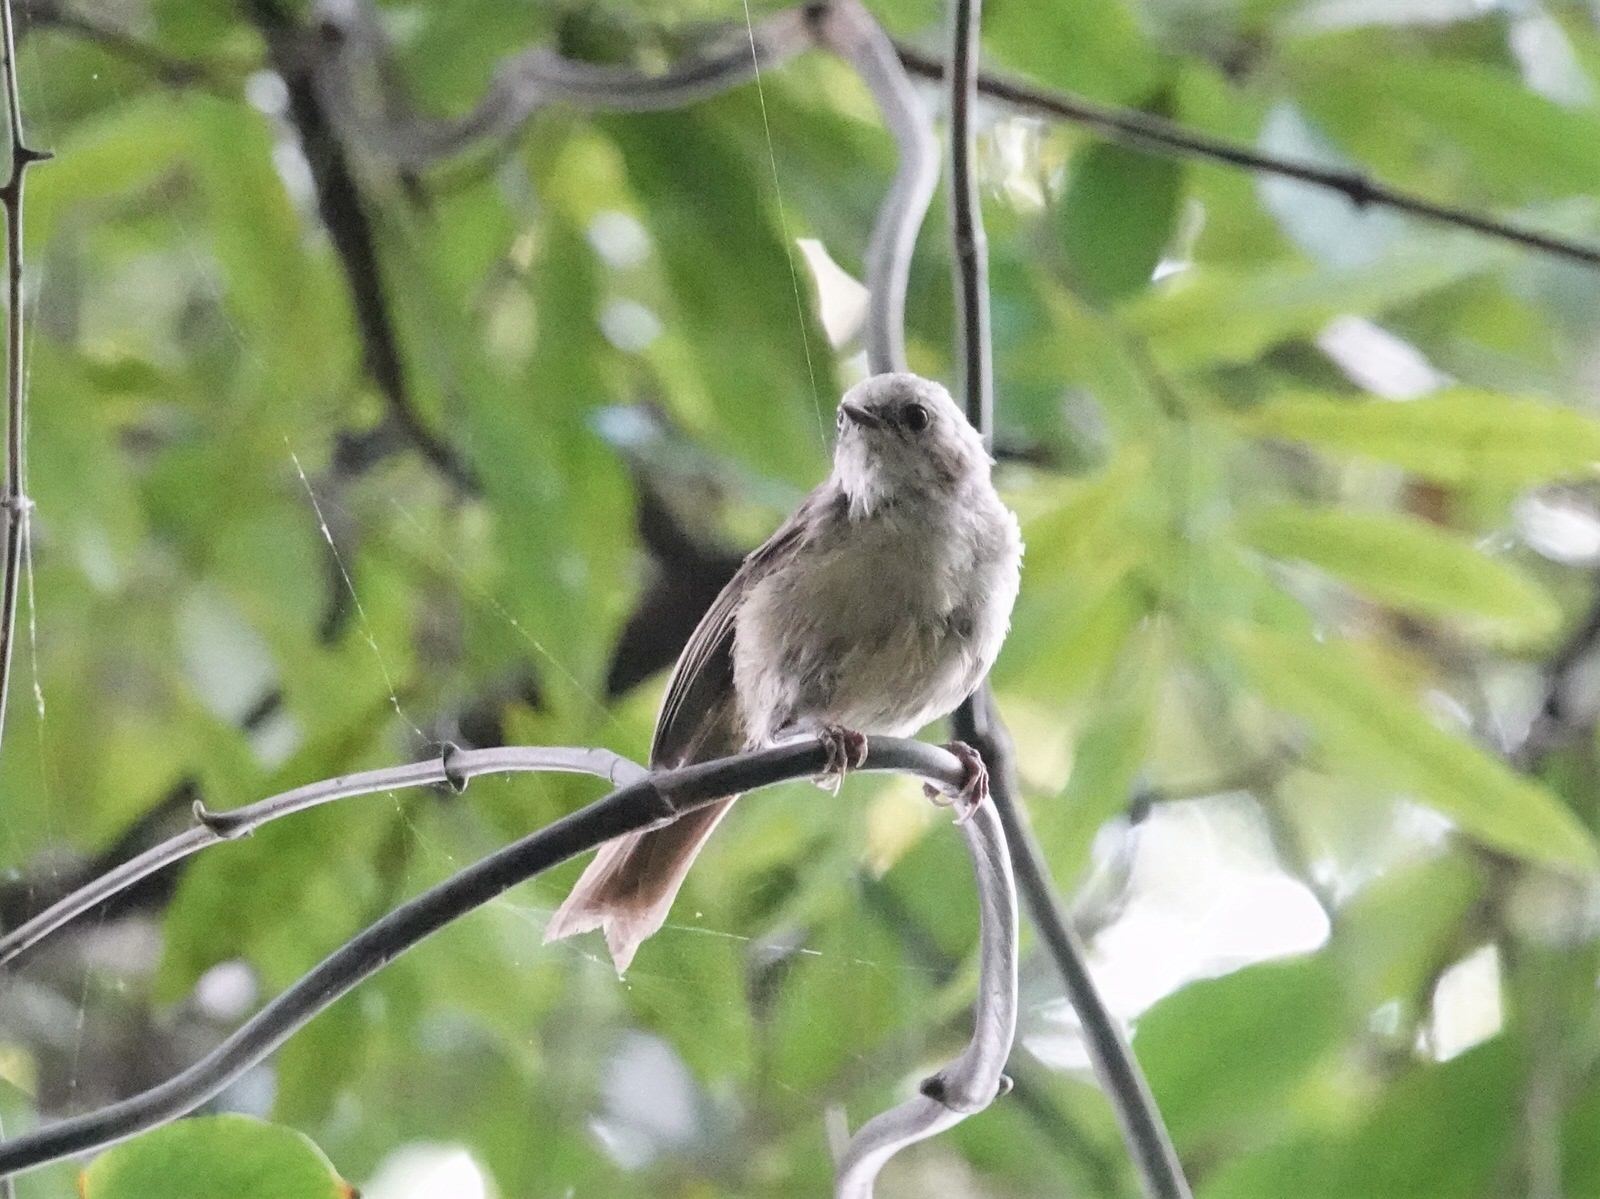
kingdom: Animalia
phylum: Chordata
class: Aves
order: Passeriformes
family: Acanthizidae
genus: Mohoua
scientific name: Mohoua albicilla
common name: Whitehead
